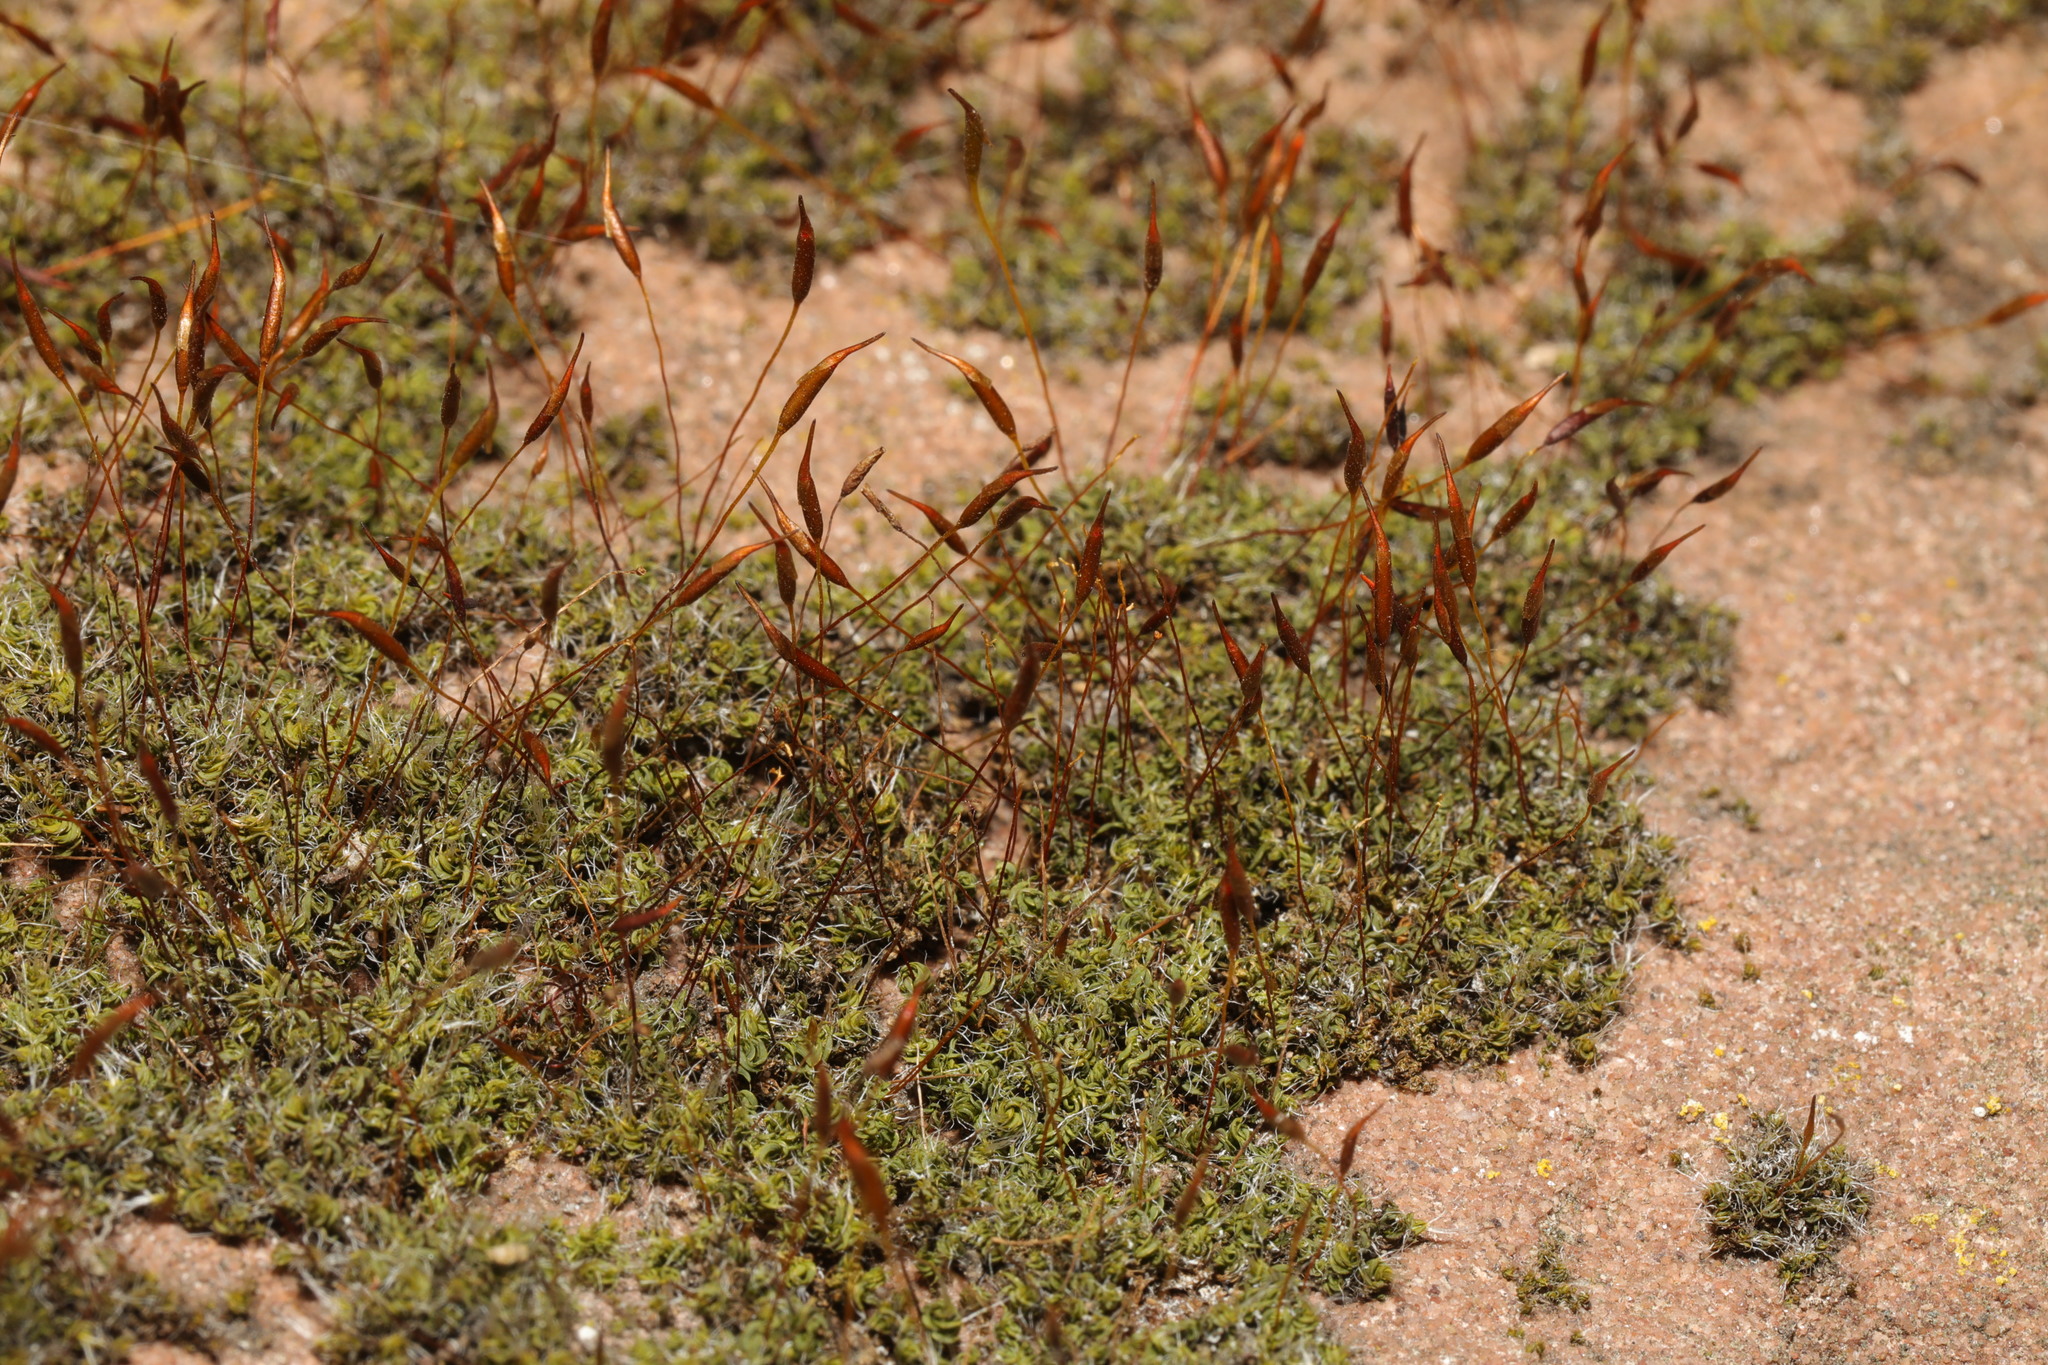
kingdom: Plantae
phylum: Bryophyta
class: Bryopsida
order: Pottiales
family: Pottiaceae
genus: Tortula
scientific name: Tortula muralis
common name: Wall screw-moss
